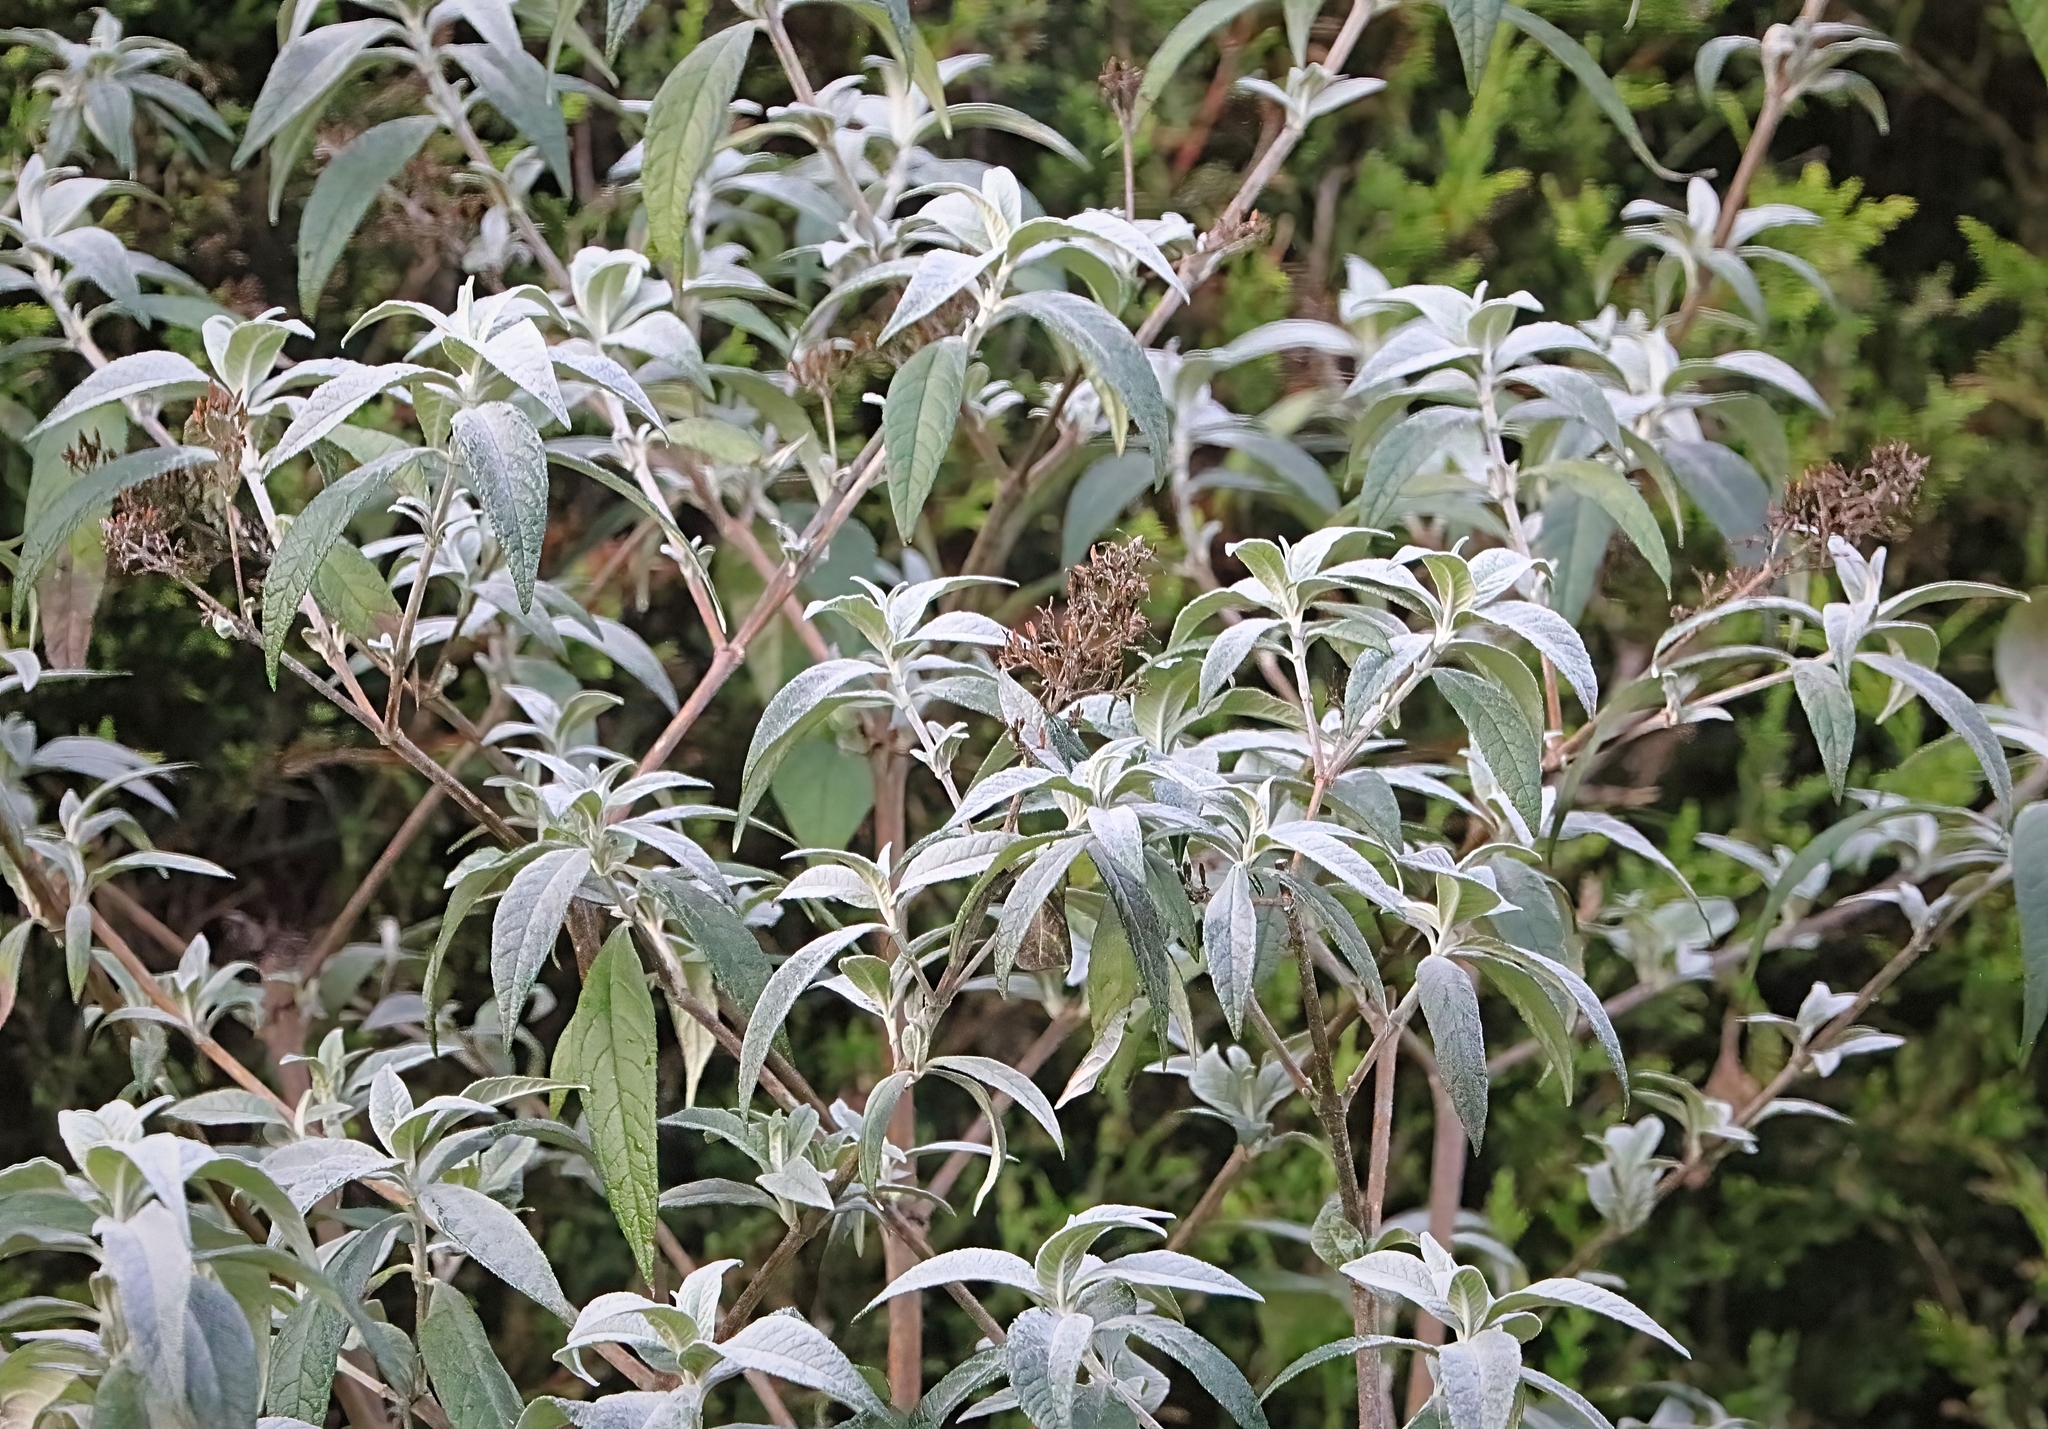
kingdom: Plantae
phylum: Tracheophyta
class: Magnoliopsida
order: Lamiales
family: Scrophulariaceae
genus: Buddleja
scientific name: Buddleja davidii
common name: Butterfly-bush
